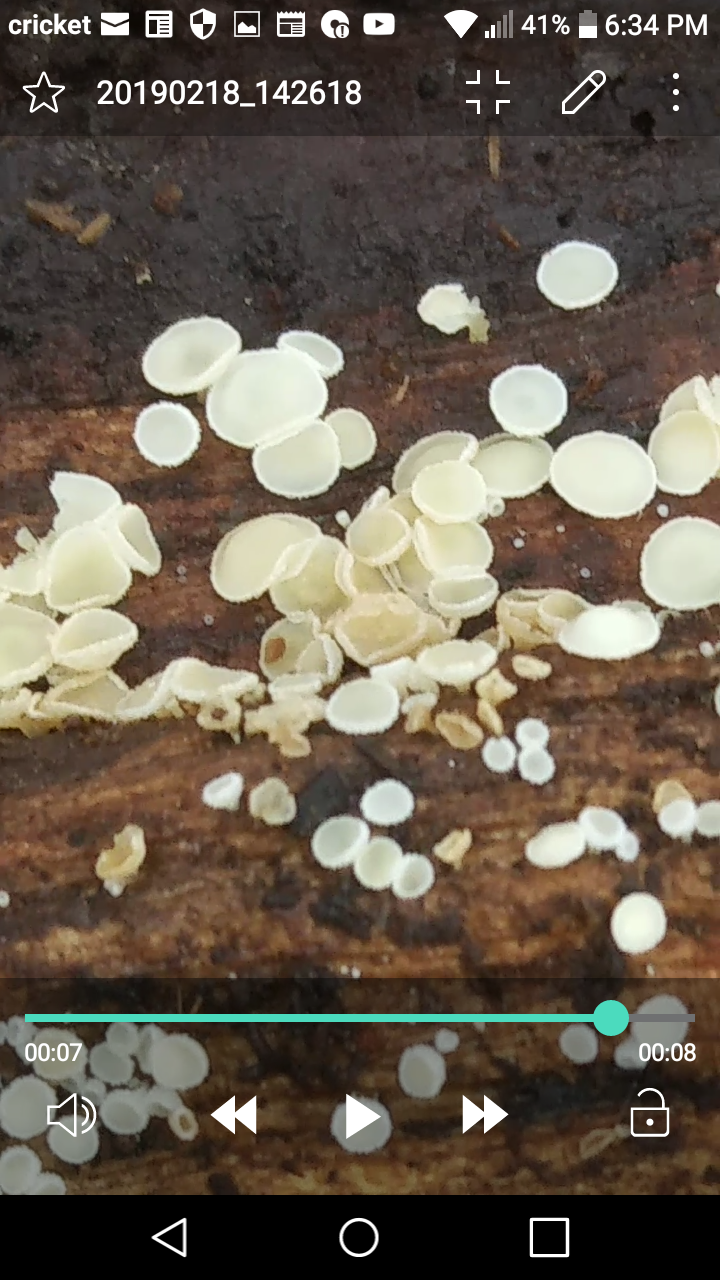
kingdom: Fungi
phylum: Ascomycota
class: Leotiomycetes
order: Helotiales
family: Lachnaceae
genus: Lachnum
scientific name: Lachnum virgineum
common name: Snowy disco
